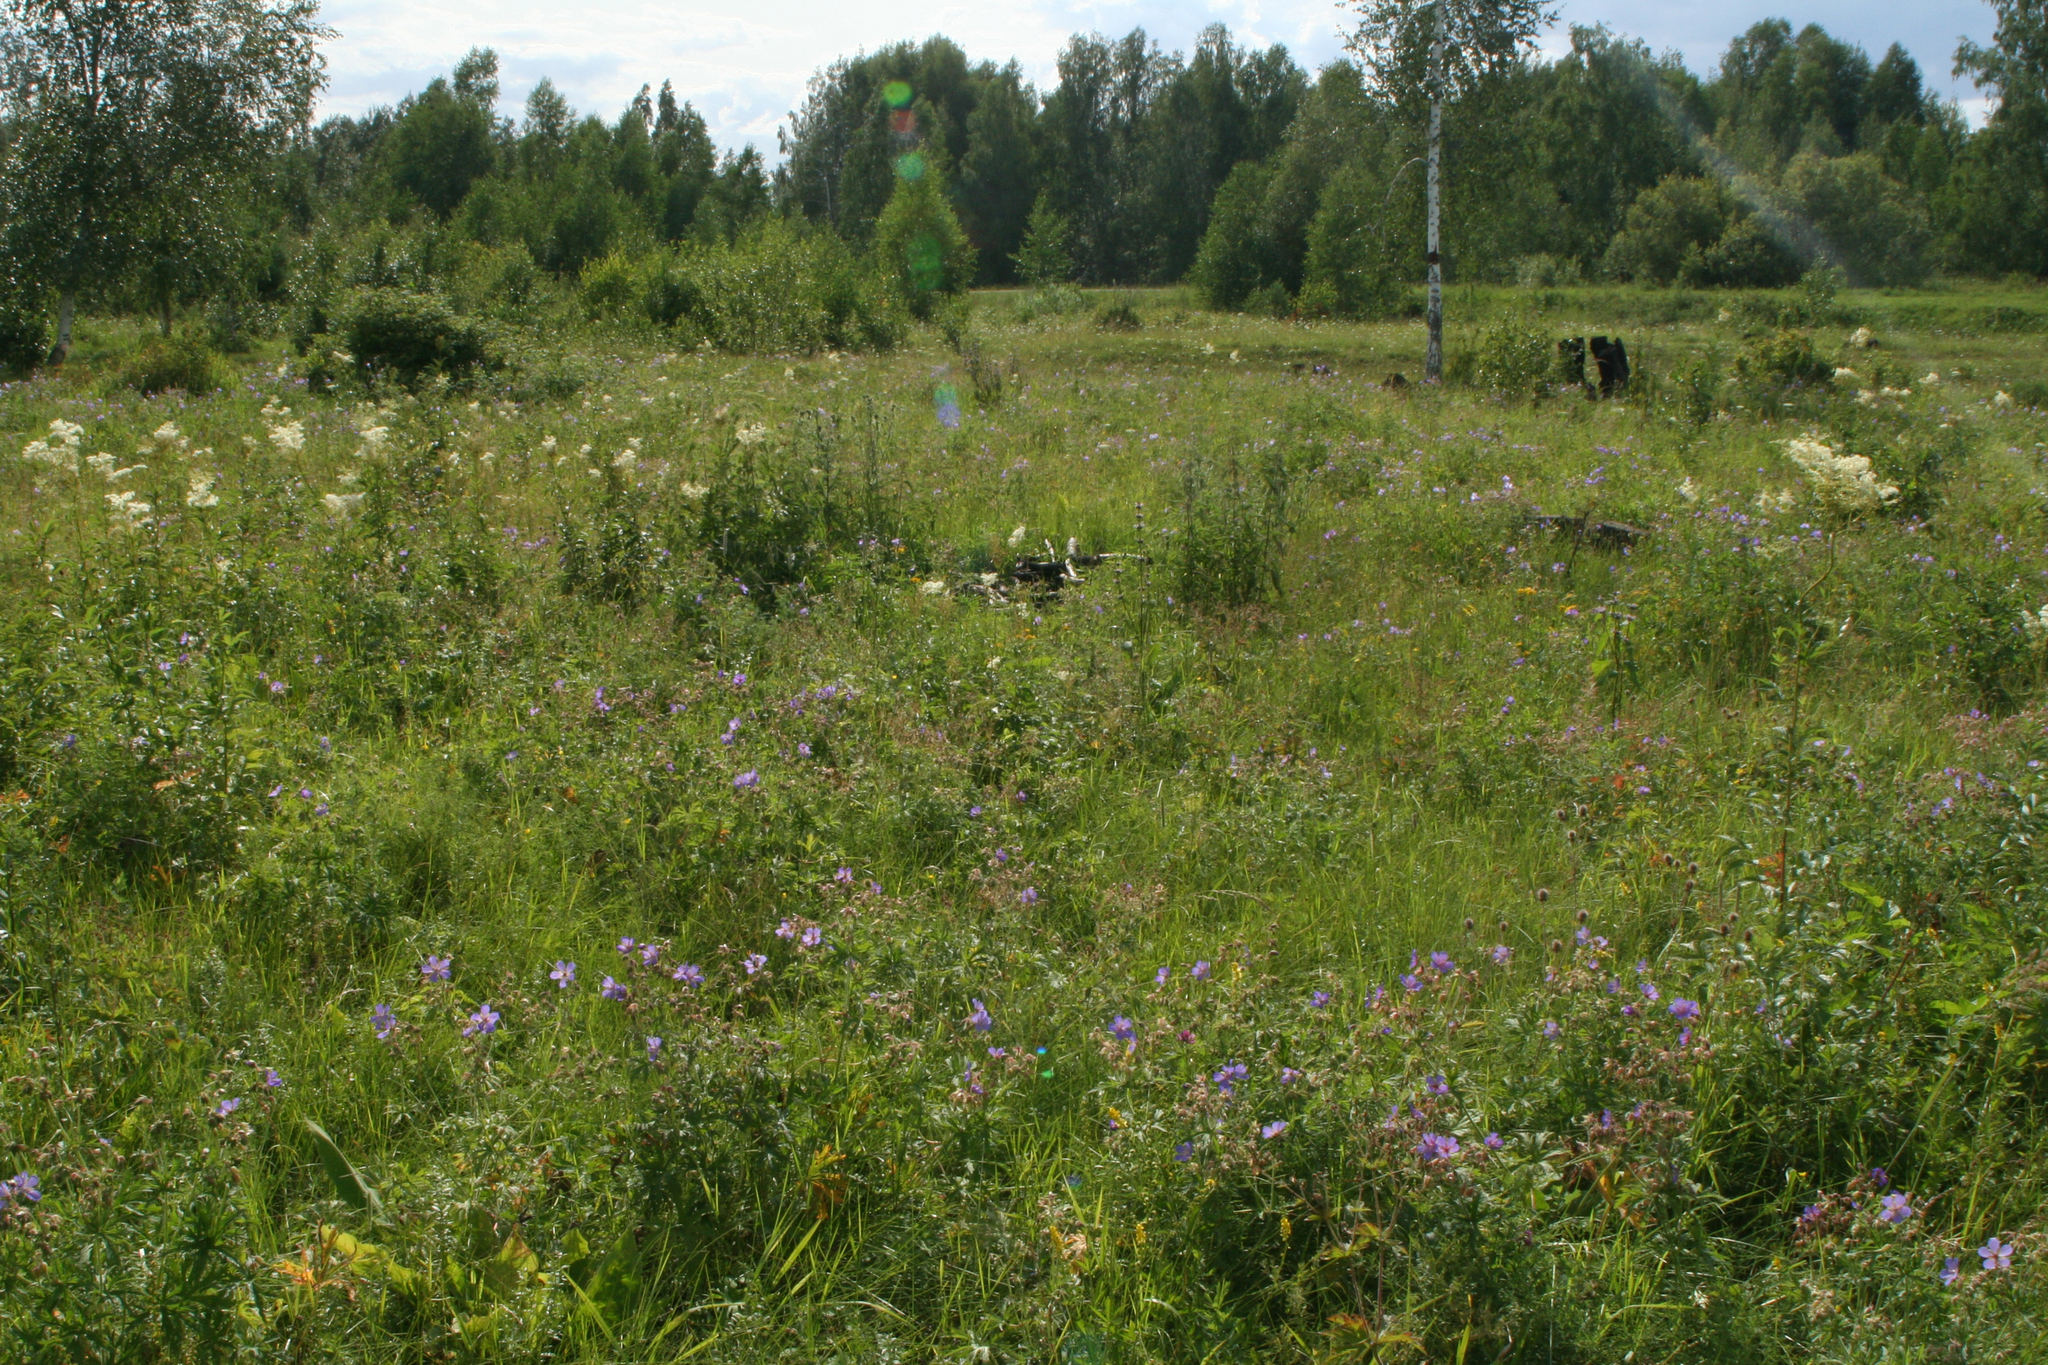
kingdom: Plantae
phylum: Tracheophyta
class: Magnoliopsida
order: Geraniales
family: Geraniaceae
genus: Geranium
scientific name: Geranium pratense
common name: Meadow crane's-bill
